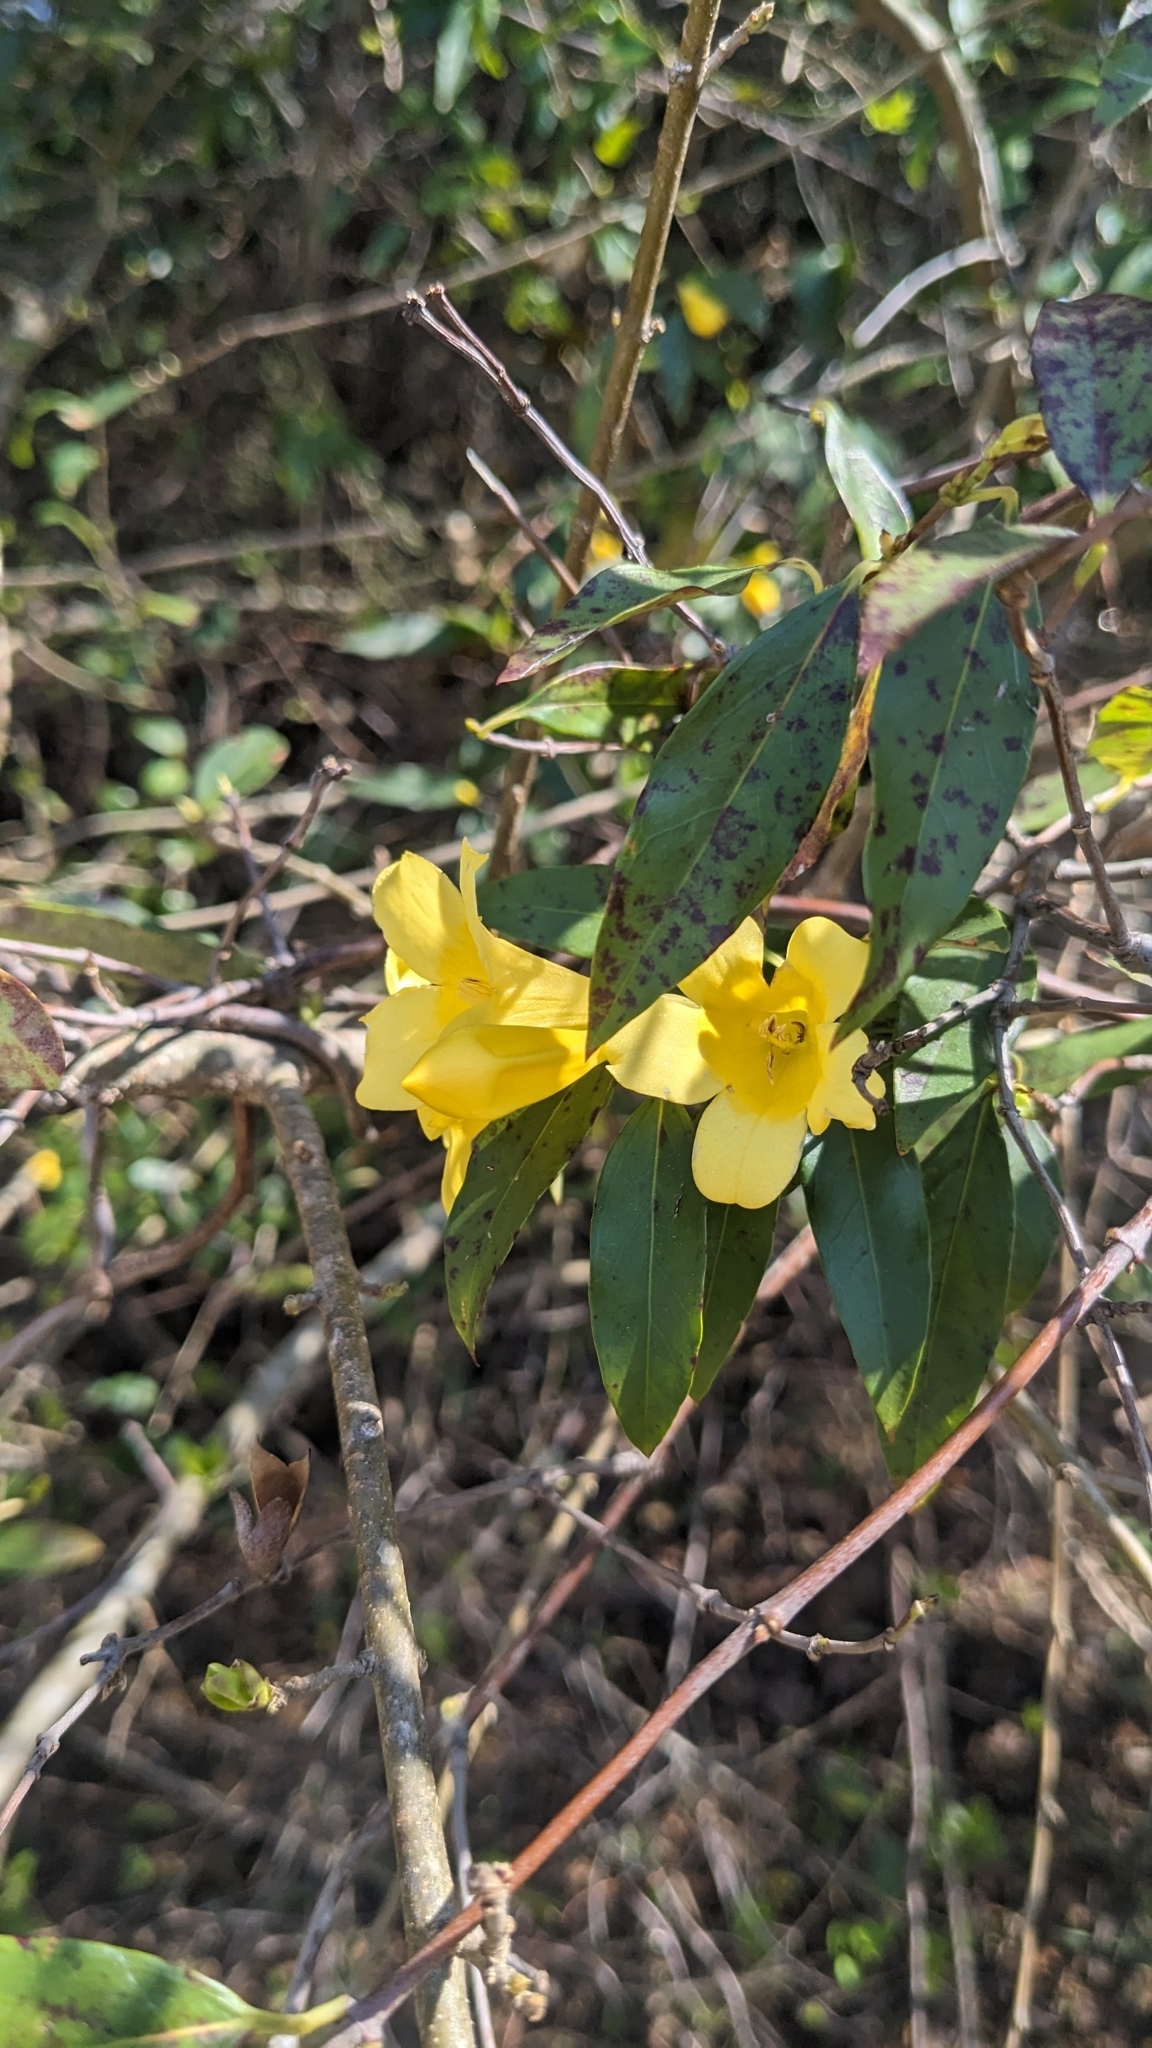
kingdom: Plantae
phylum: Tracheophyta
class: Magnoliopsida
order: Gentianales
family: Gelsemiaceae
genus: Gelsemium
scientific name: Gelsemium sempervirens
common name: Carolina-jasmine
